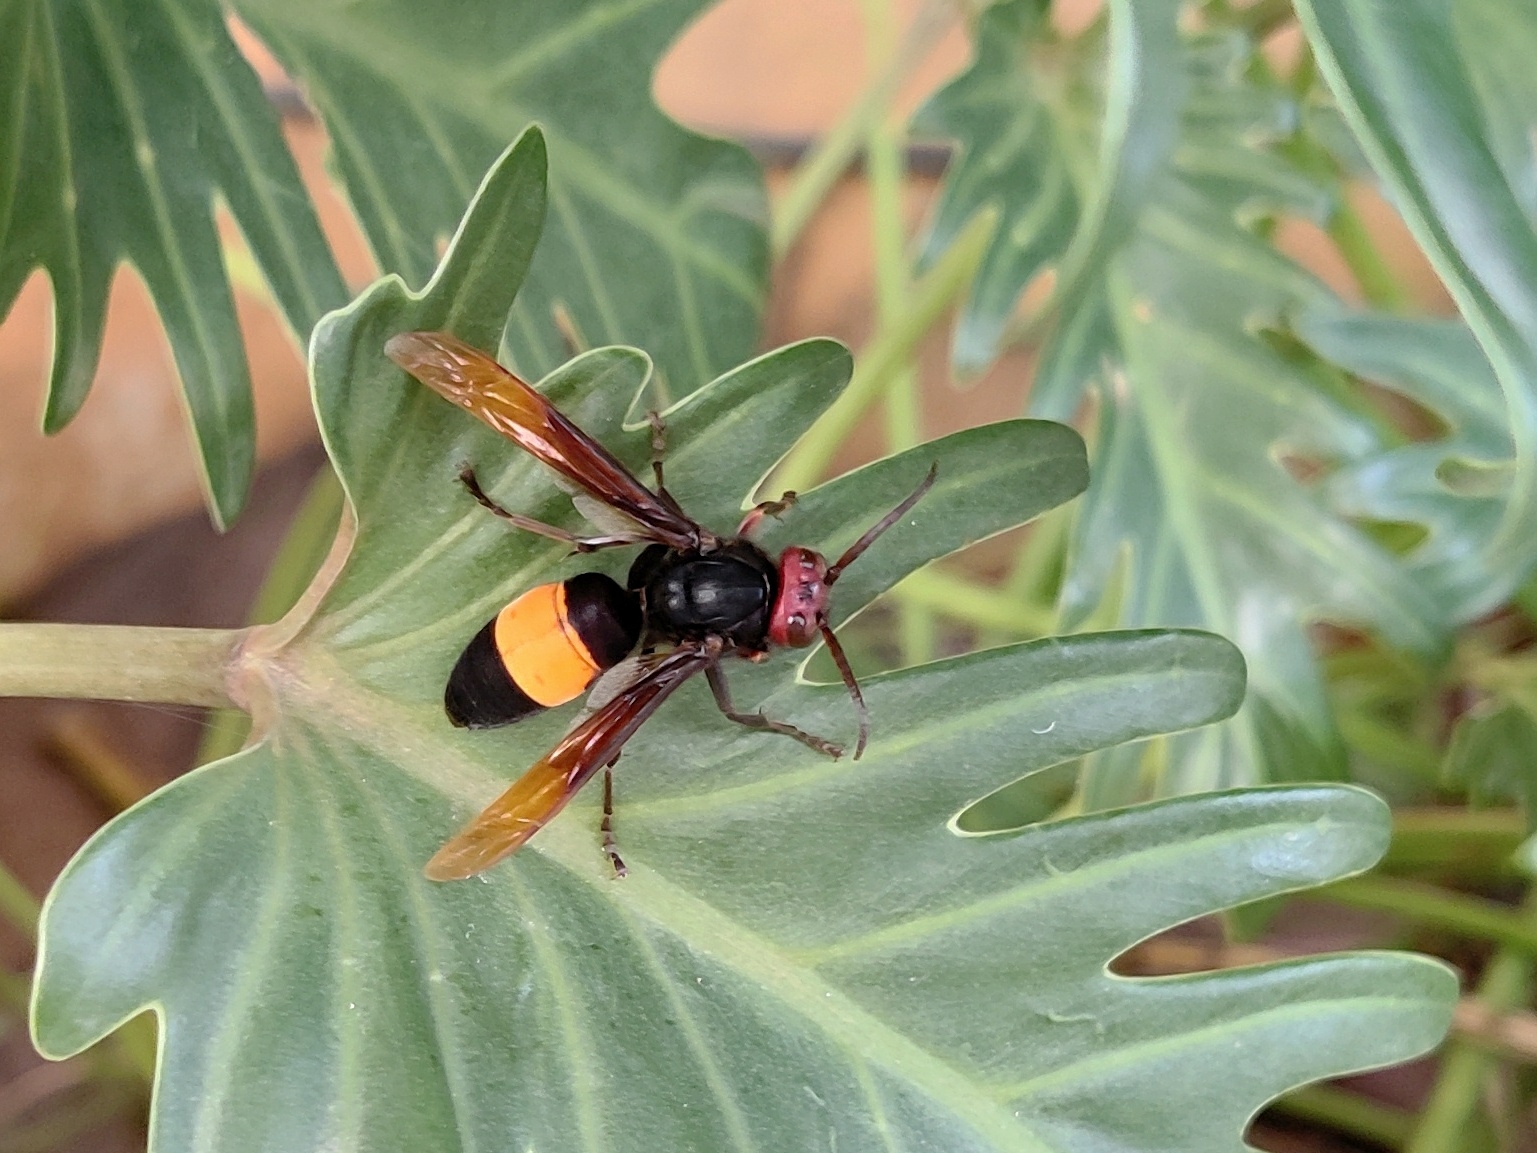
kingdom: Animalia
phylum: Arthropoda
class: Insecta
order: Hymenoptera
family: Vespidae
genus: Vespa
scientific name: Vespa affinis
